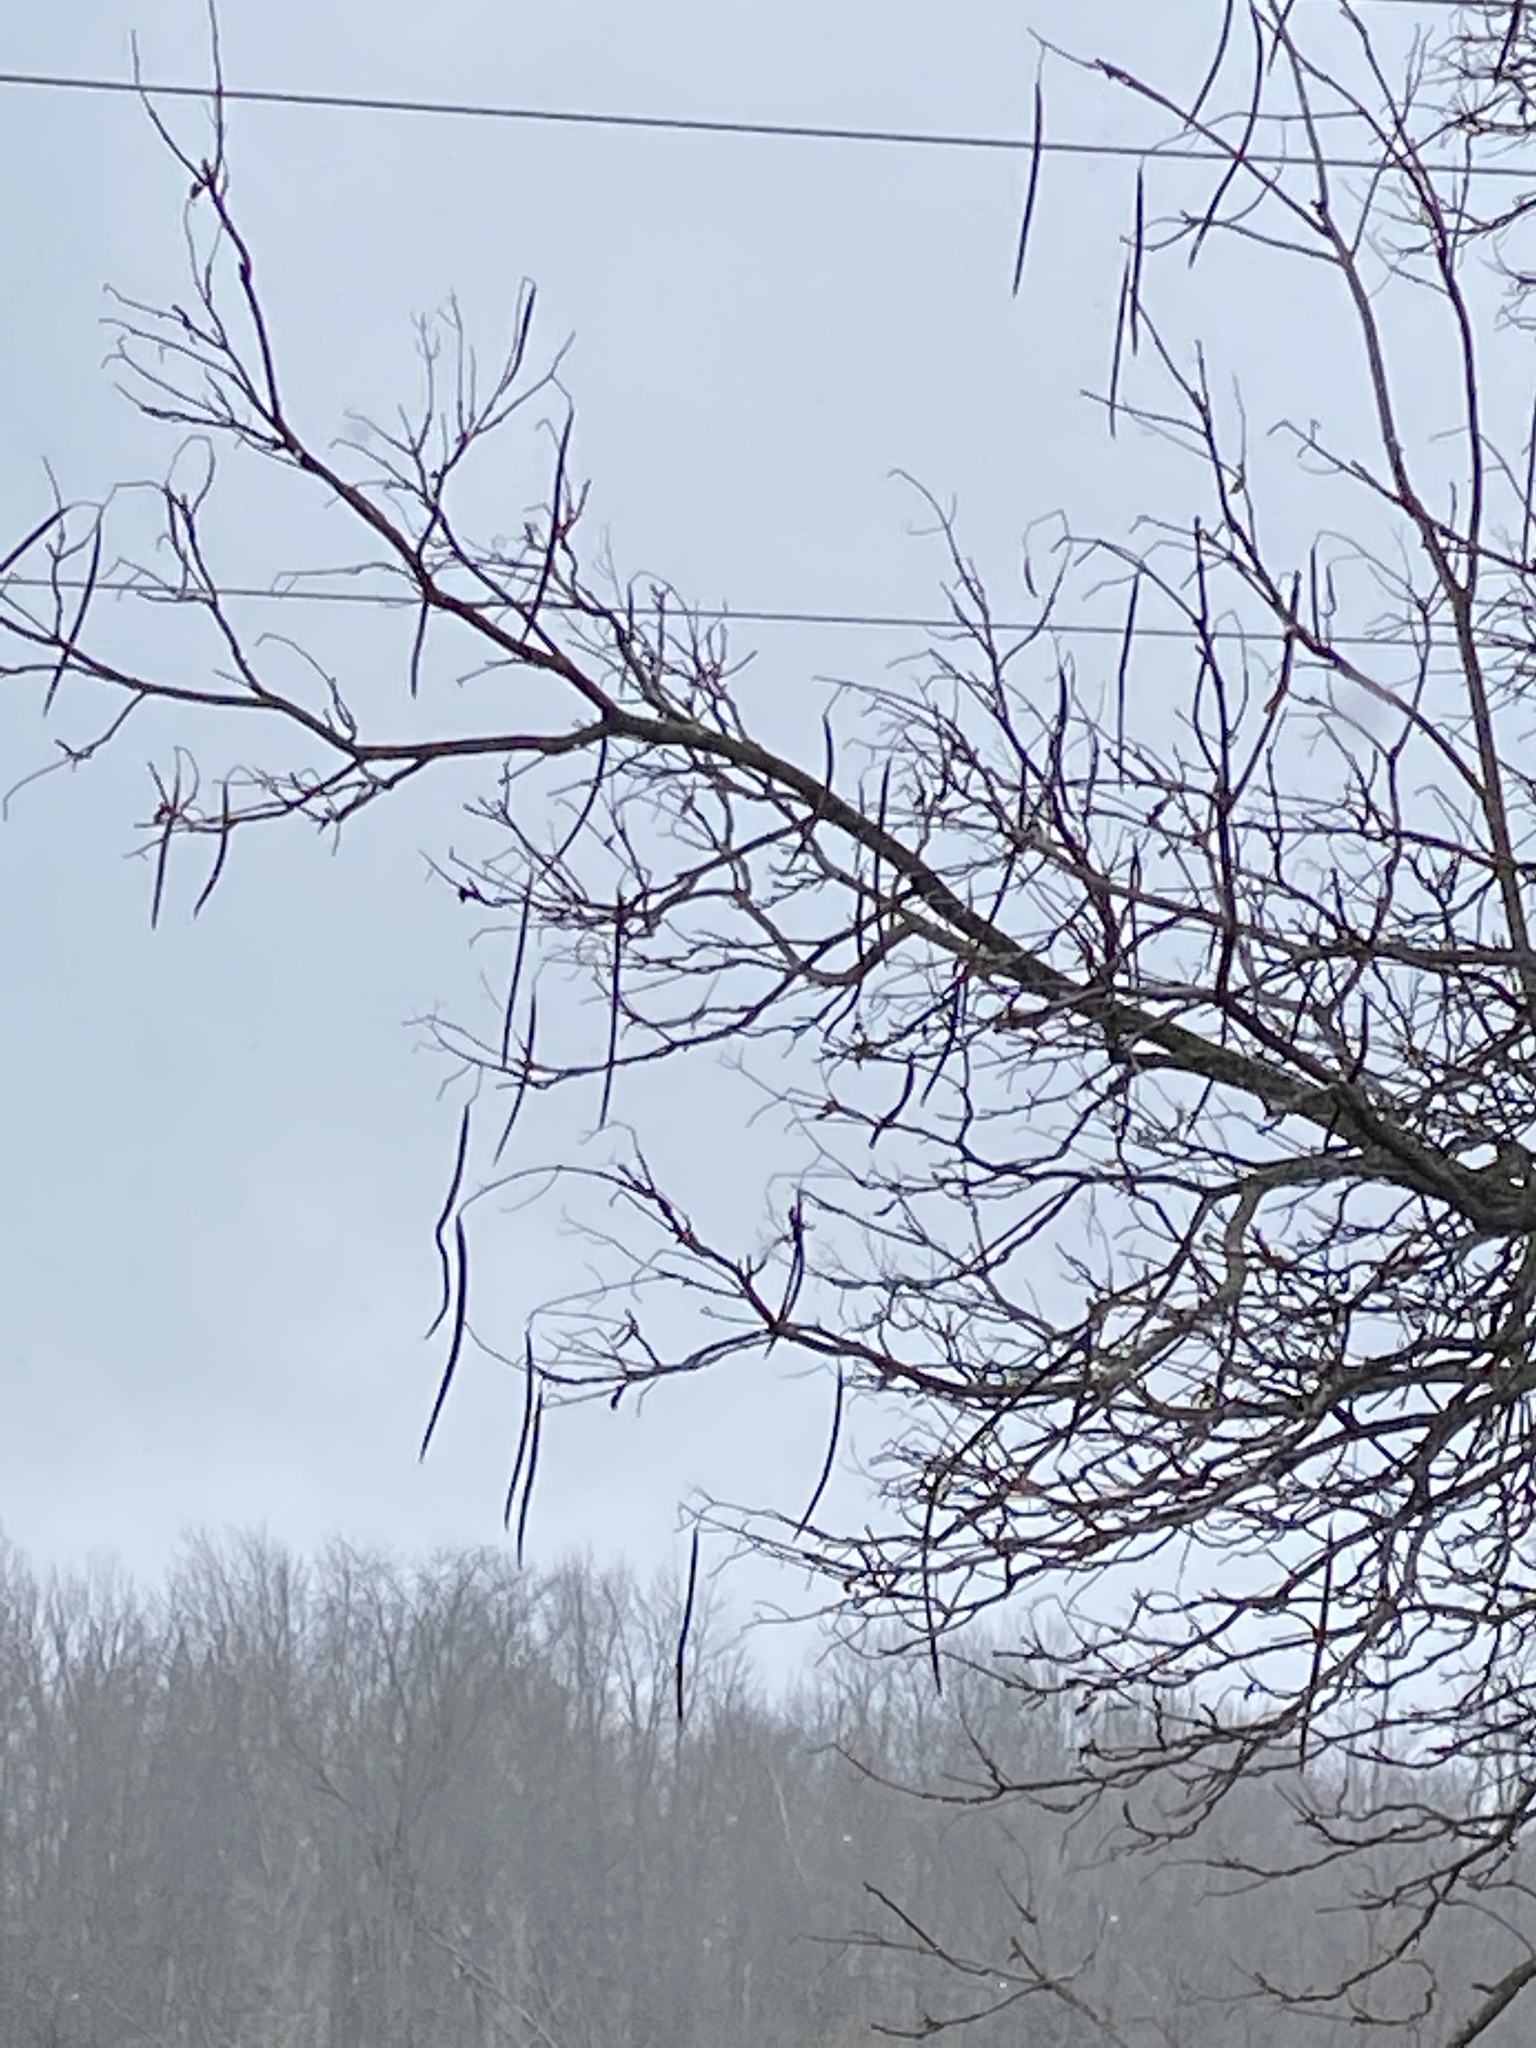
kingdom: Plantae
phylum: Tracheophyta
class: Magnoliopsida
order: Lamiales
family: Bignoniaceae
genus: Catalpa
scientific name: Catalpa speciosa
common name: Northern catalpa
